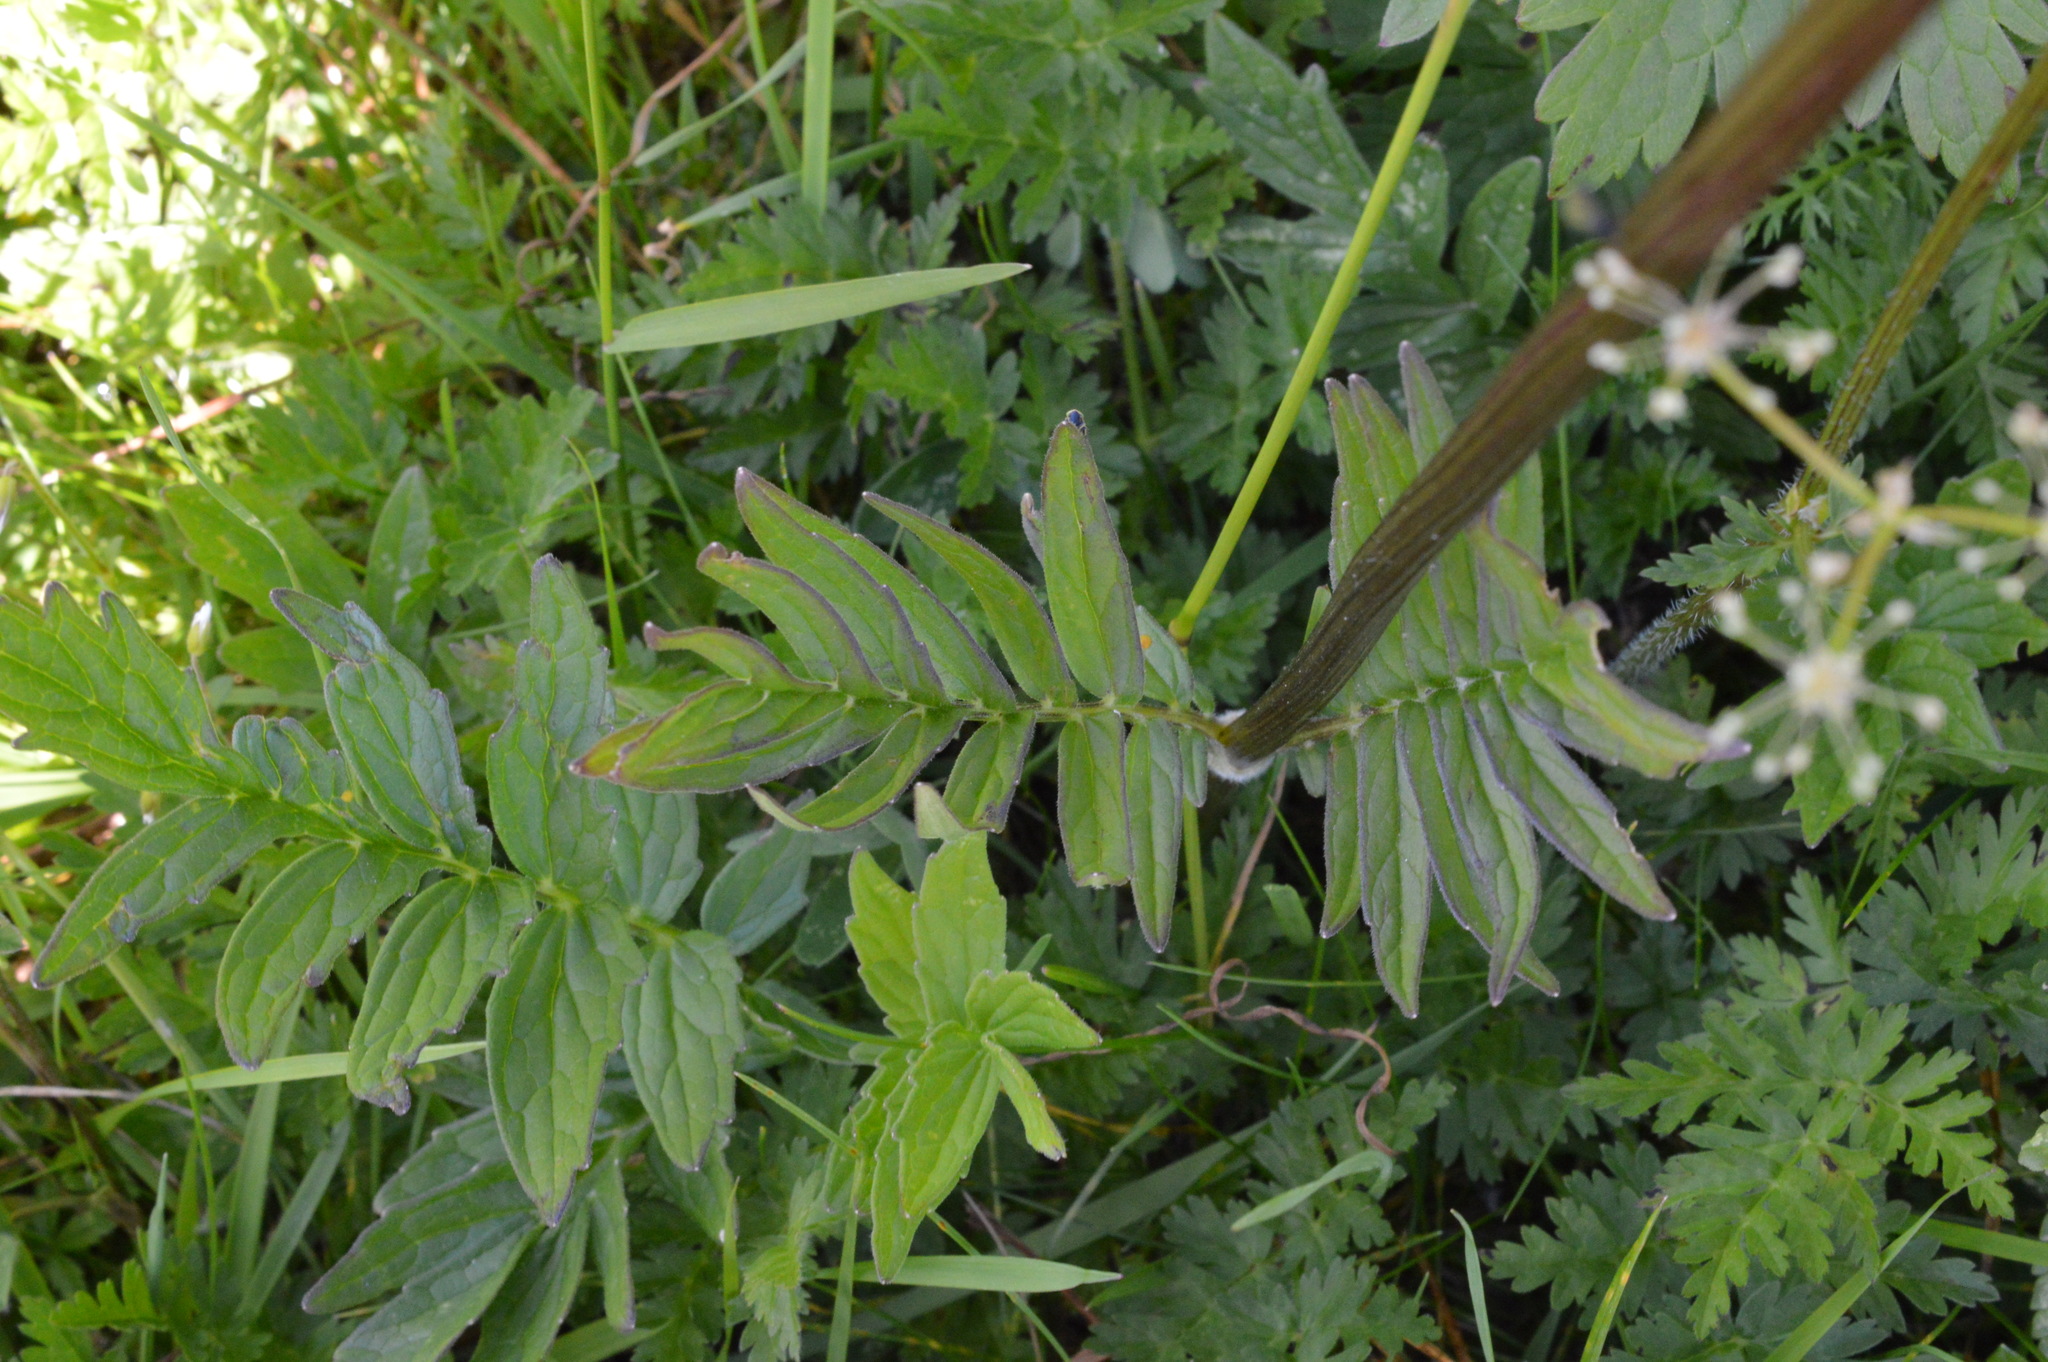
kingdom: Plantae
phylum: Tracheophyta
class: Magnoliopsida
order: Dipsacales
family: Caprifoliaceae
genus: Valeriana
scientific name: Valeriana
